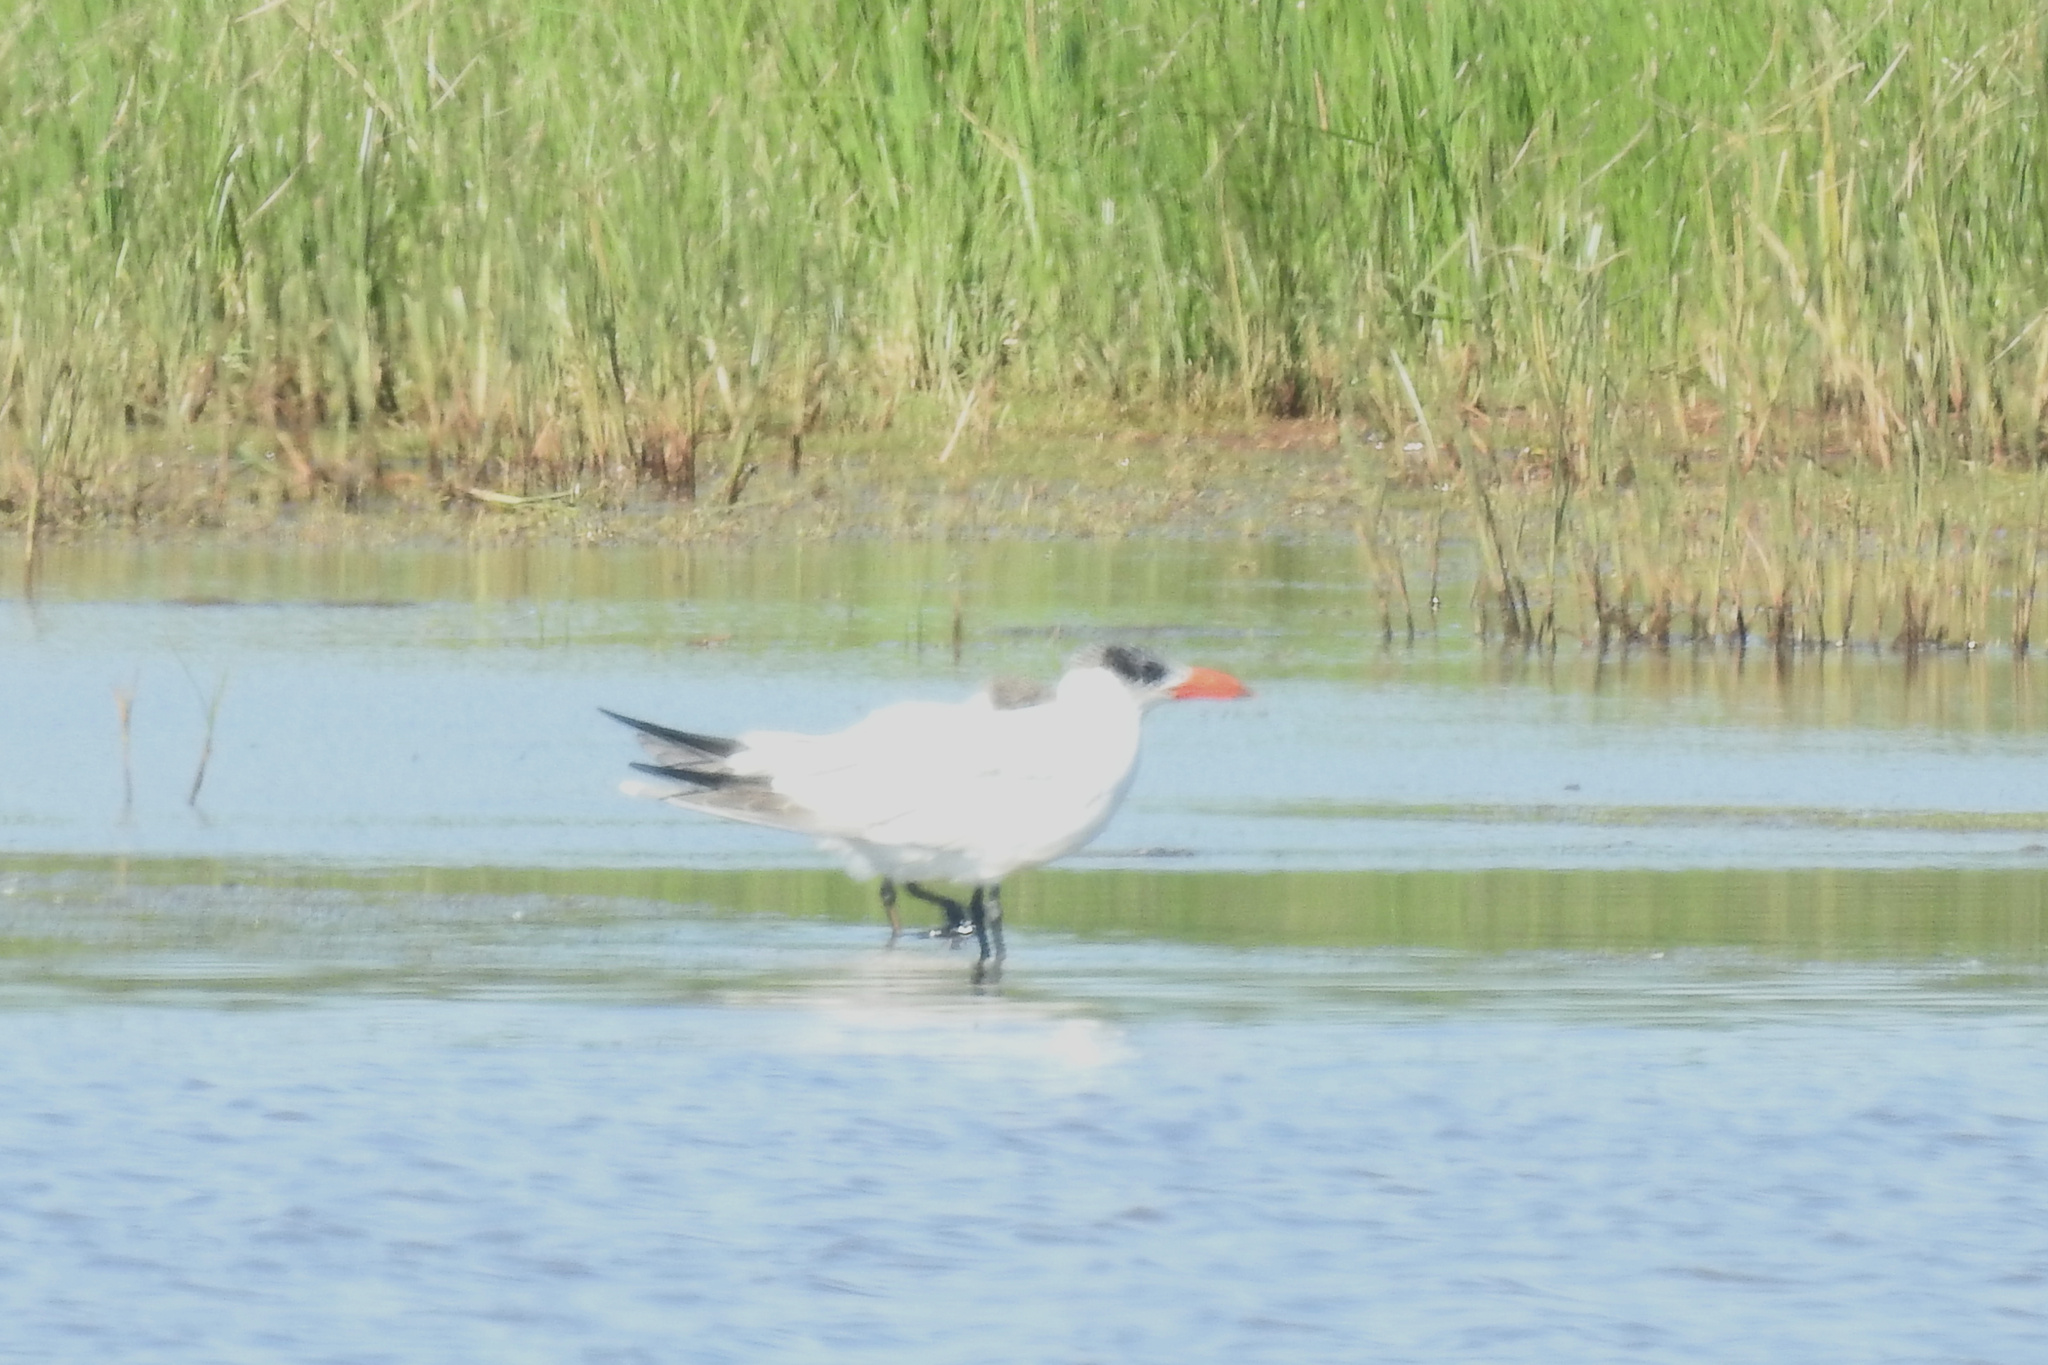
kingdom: Animalia
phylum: Chordata
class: Aves
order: Charadriiformes
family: Laridae
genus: Hydroprogne
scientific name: Hydroprogne caspia
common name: Caspian tern
